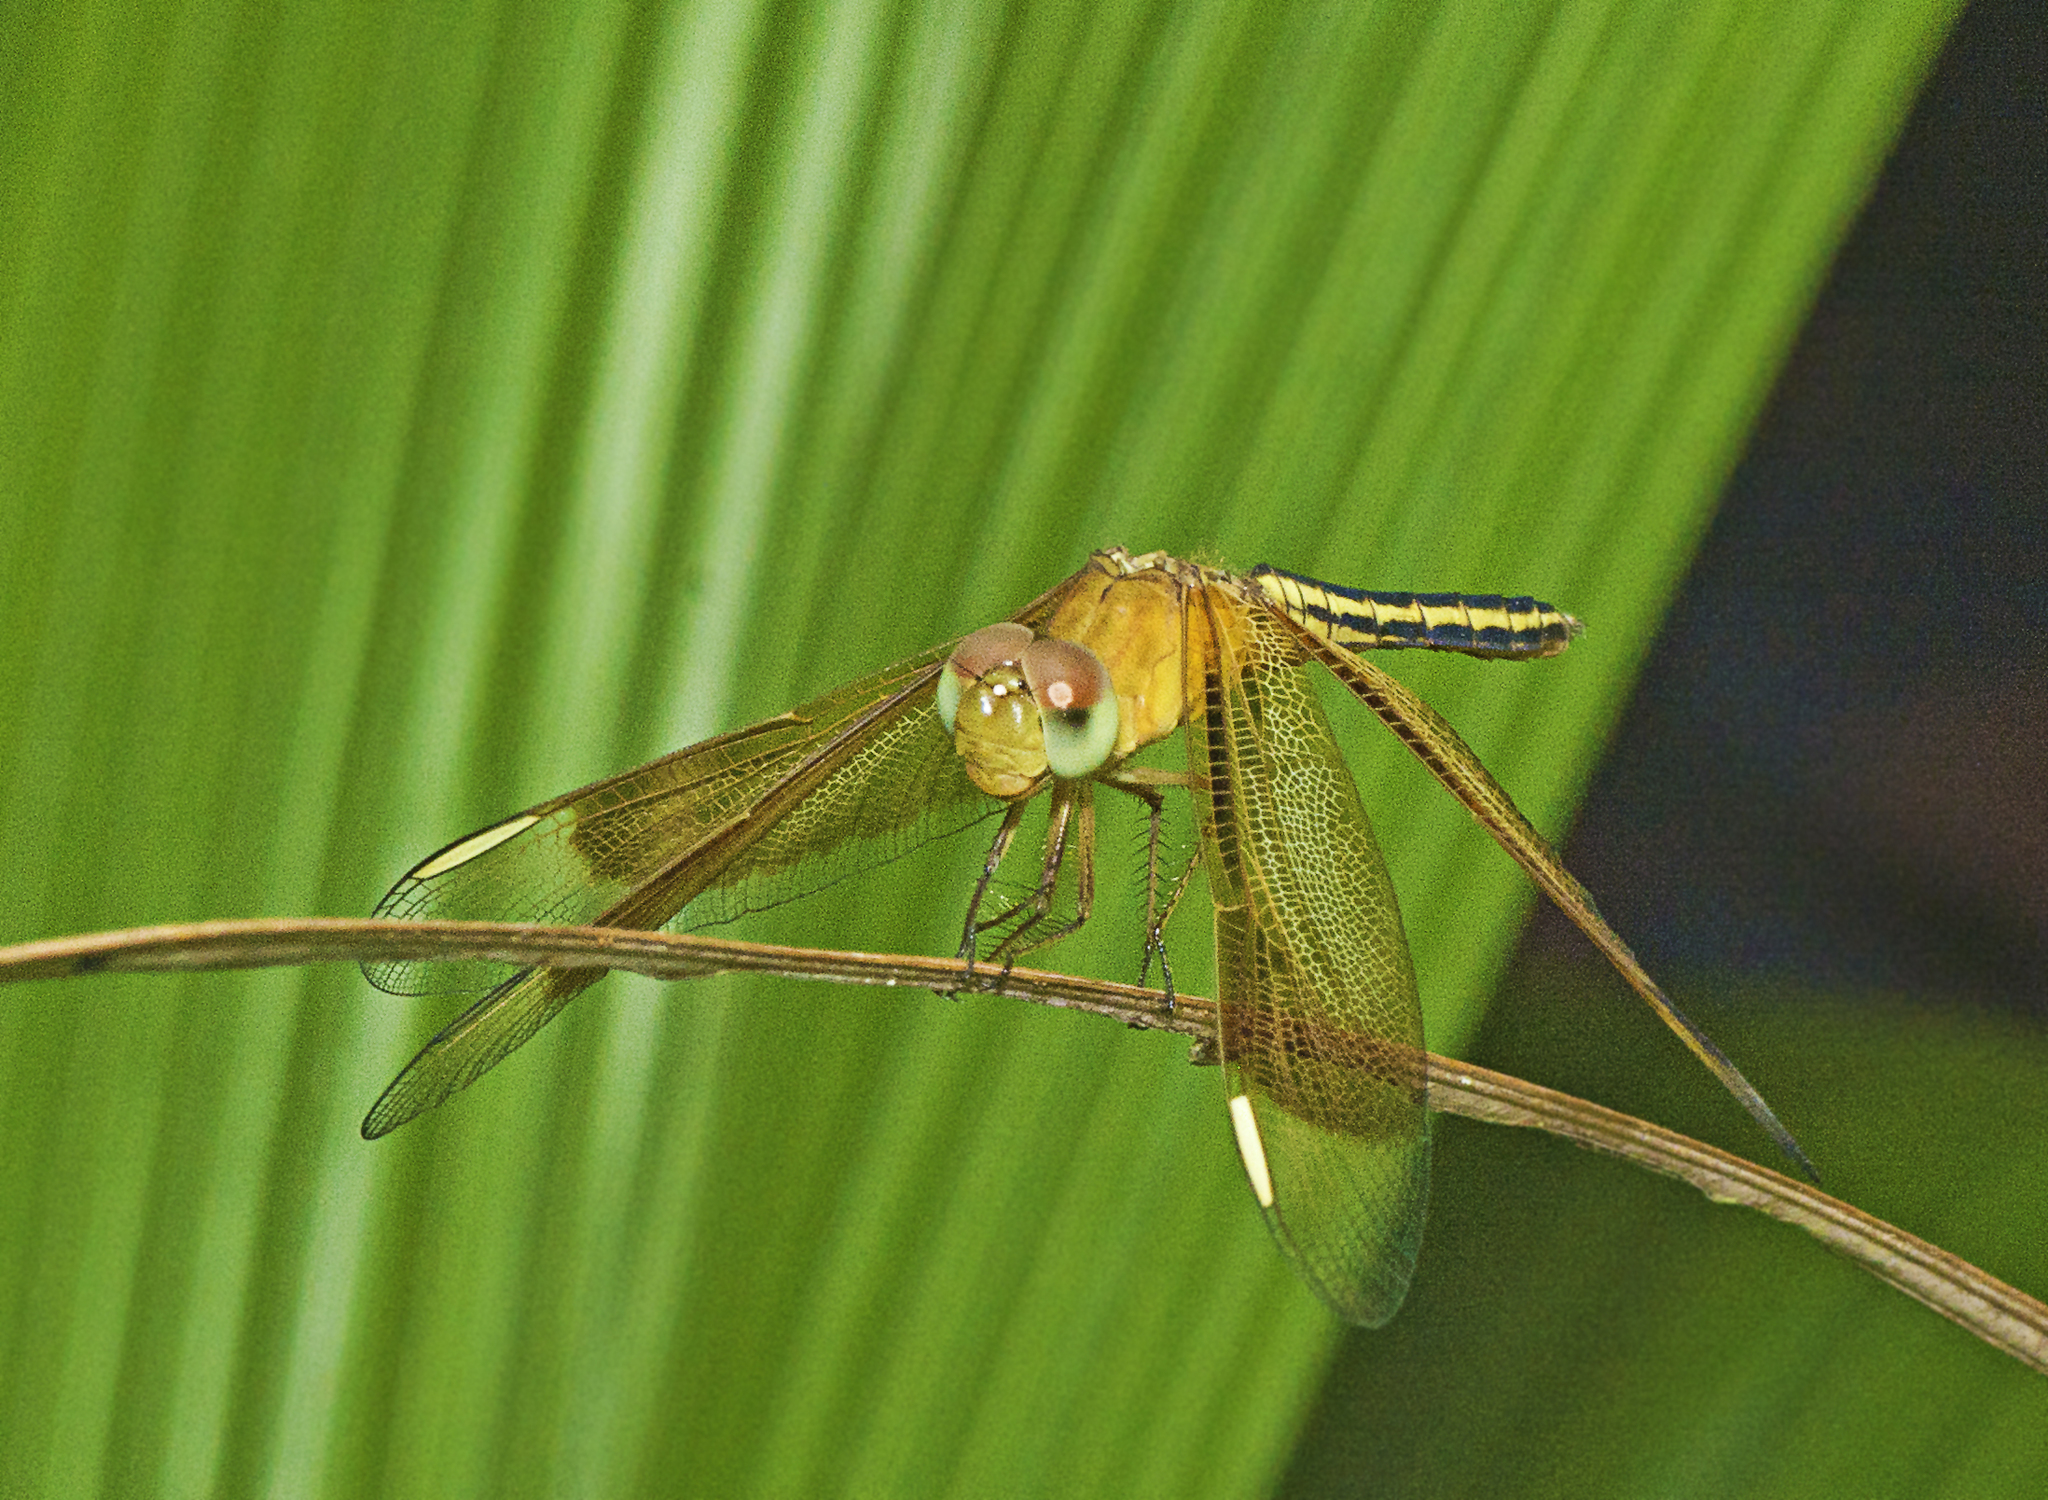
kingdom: Animalia
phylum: Arthropoda
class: Insecta
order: Odonata
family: Libellulidae
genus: Neurothemis
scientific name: Neurothemis stigmatizans
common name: Painted grasshawk
